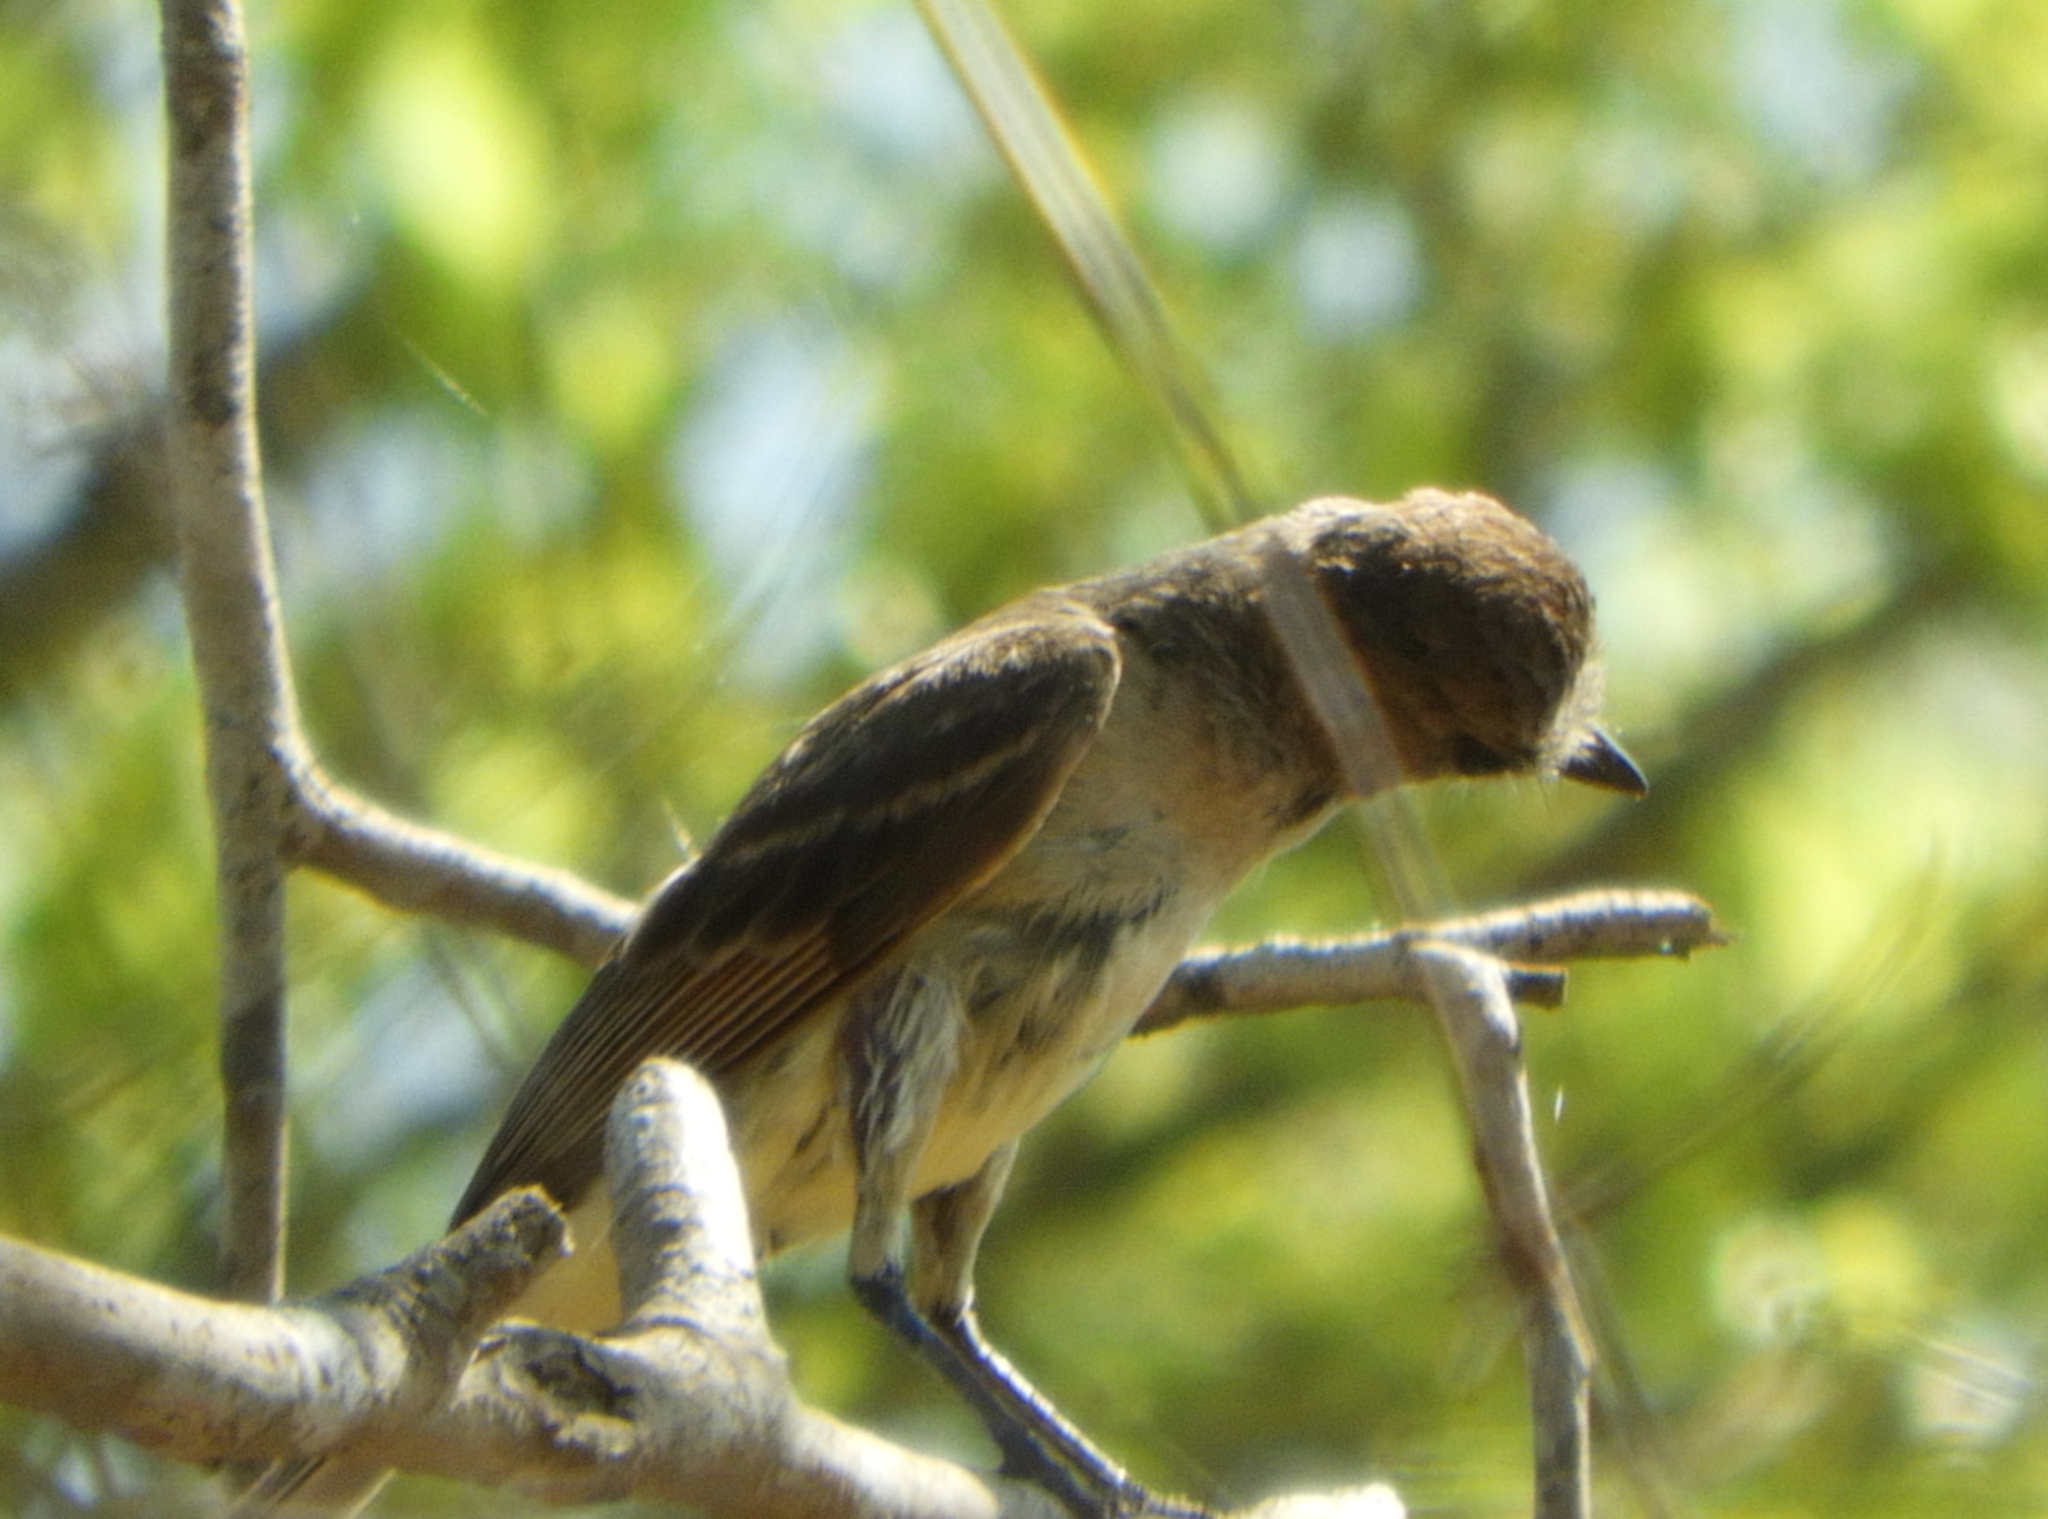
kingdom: Animalia
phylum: Chordata
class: Aves
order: Passeriformes
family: Tyrannidae
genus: Myiarchus
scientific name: Myiarchus cinerascens
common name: Ash-throated flycatcher
